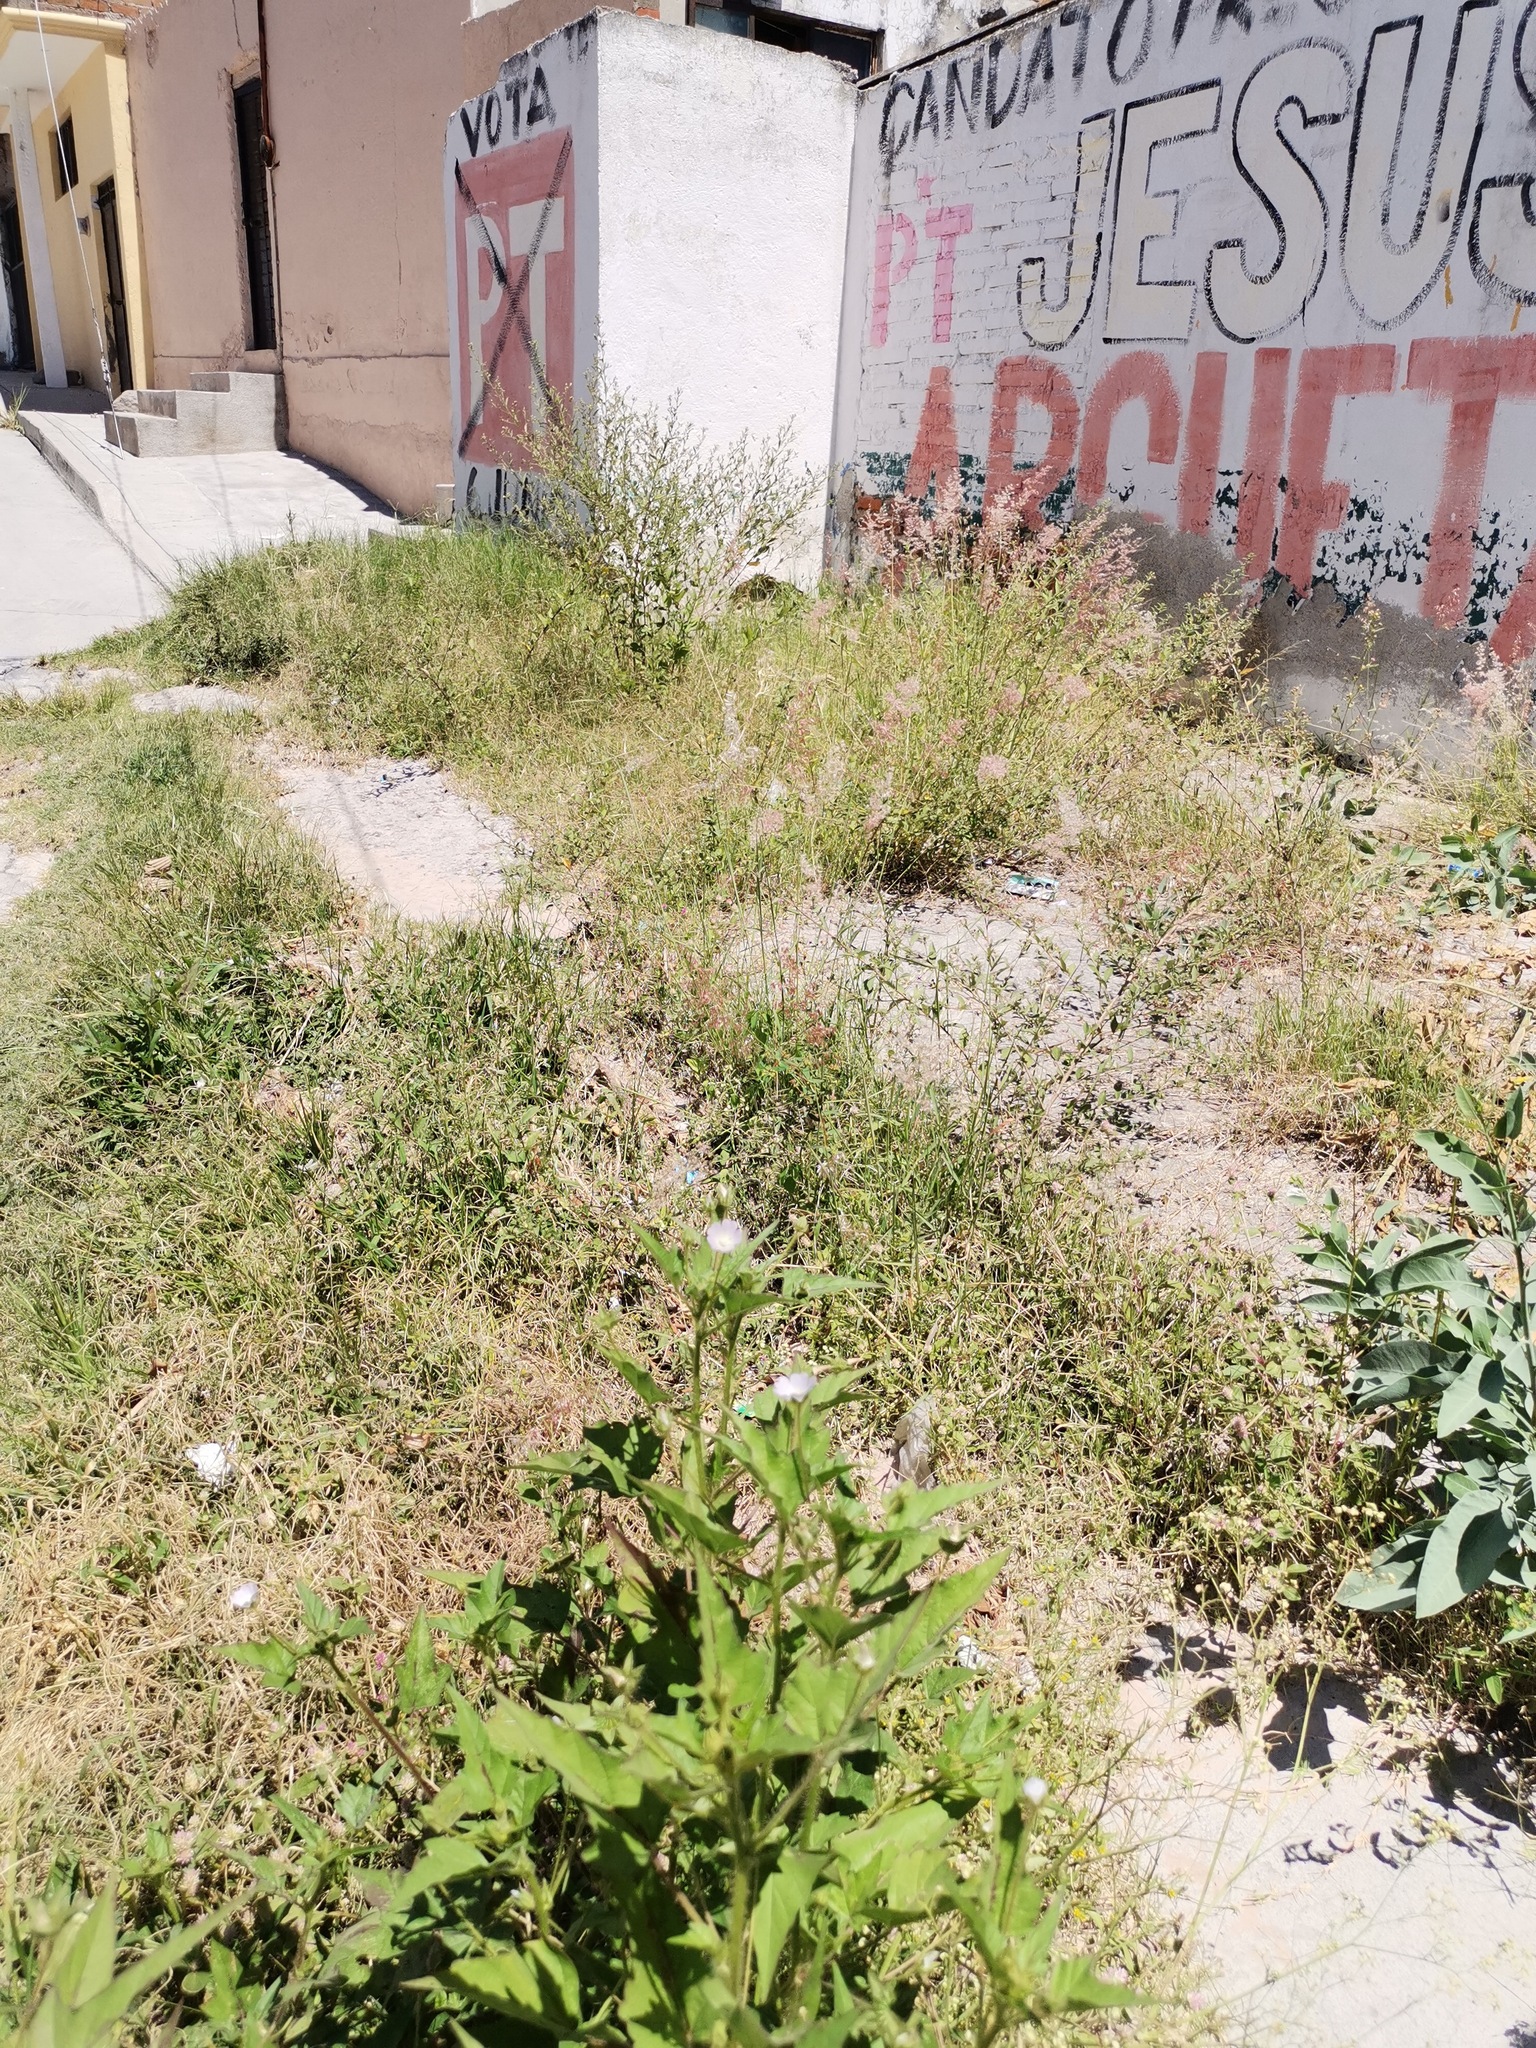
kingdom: Plantae
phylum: Tracheophyta
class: Liliopsida
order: Poales
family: Poaceae
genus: Melinis
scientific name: Melinis repens
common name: Rose natal grass
